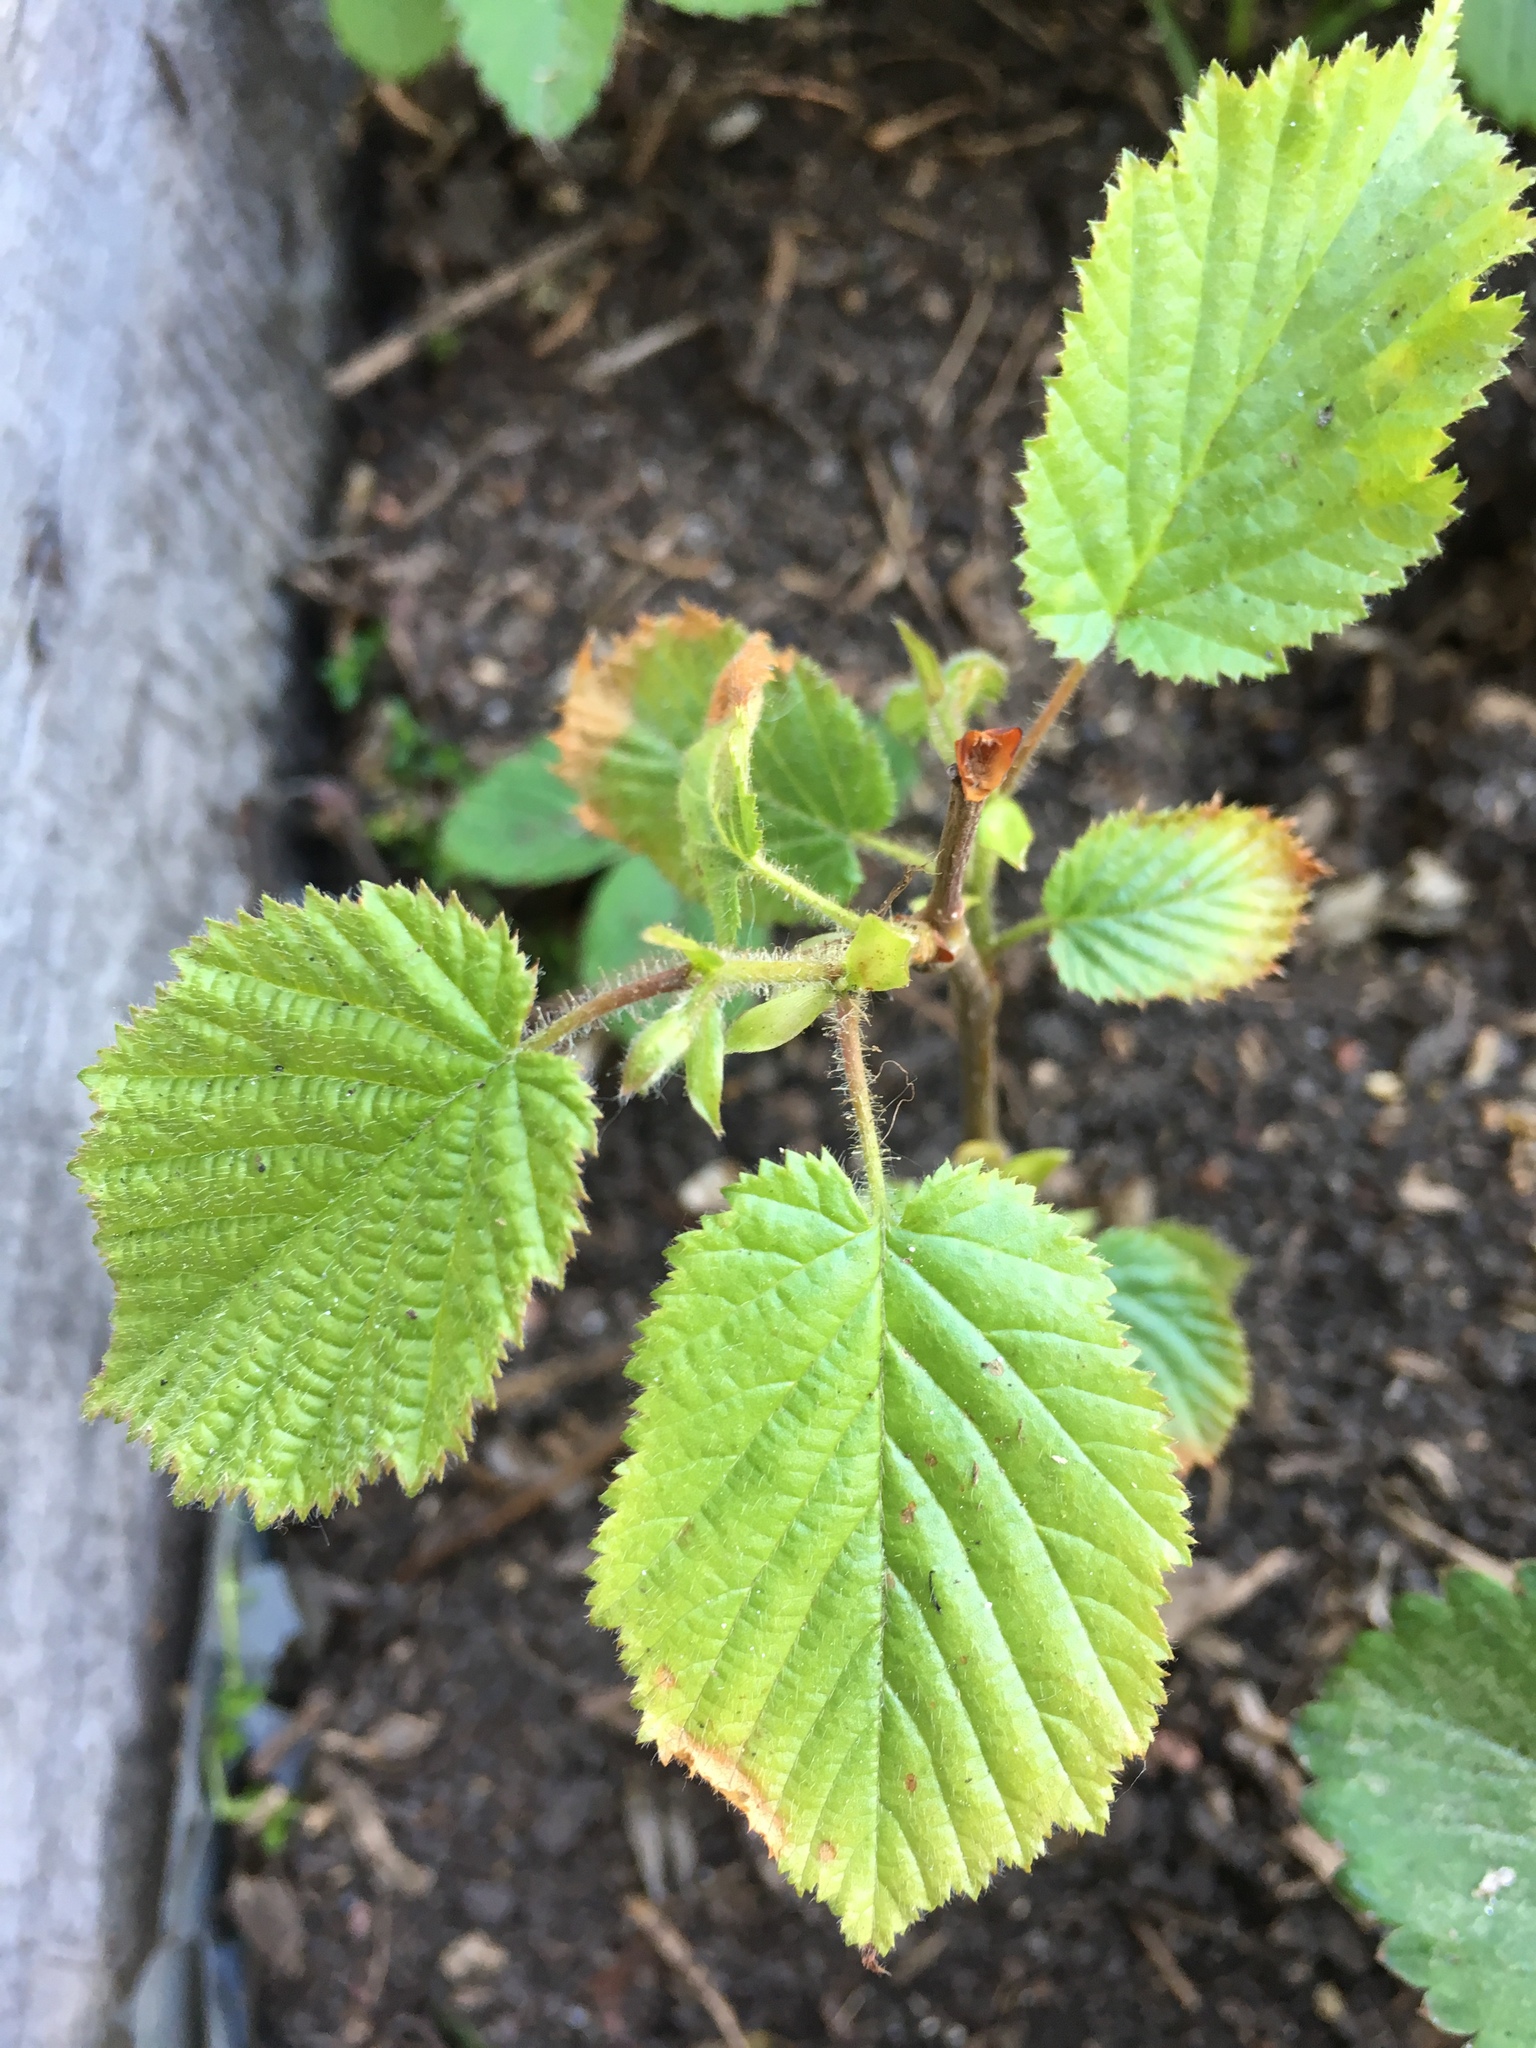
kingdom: Plantae
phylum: Tracheophyta
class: Magnoliopsida
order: Fagales
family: Betulaceae
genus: Corylus
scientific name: Corylus avellana
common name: European hazel
